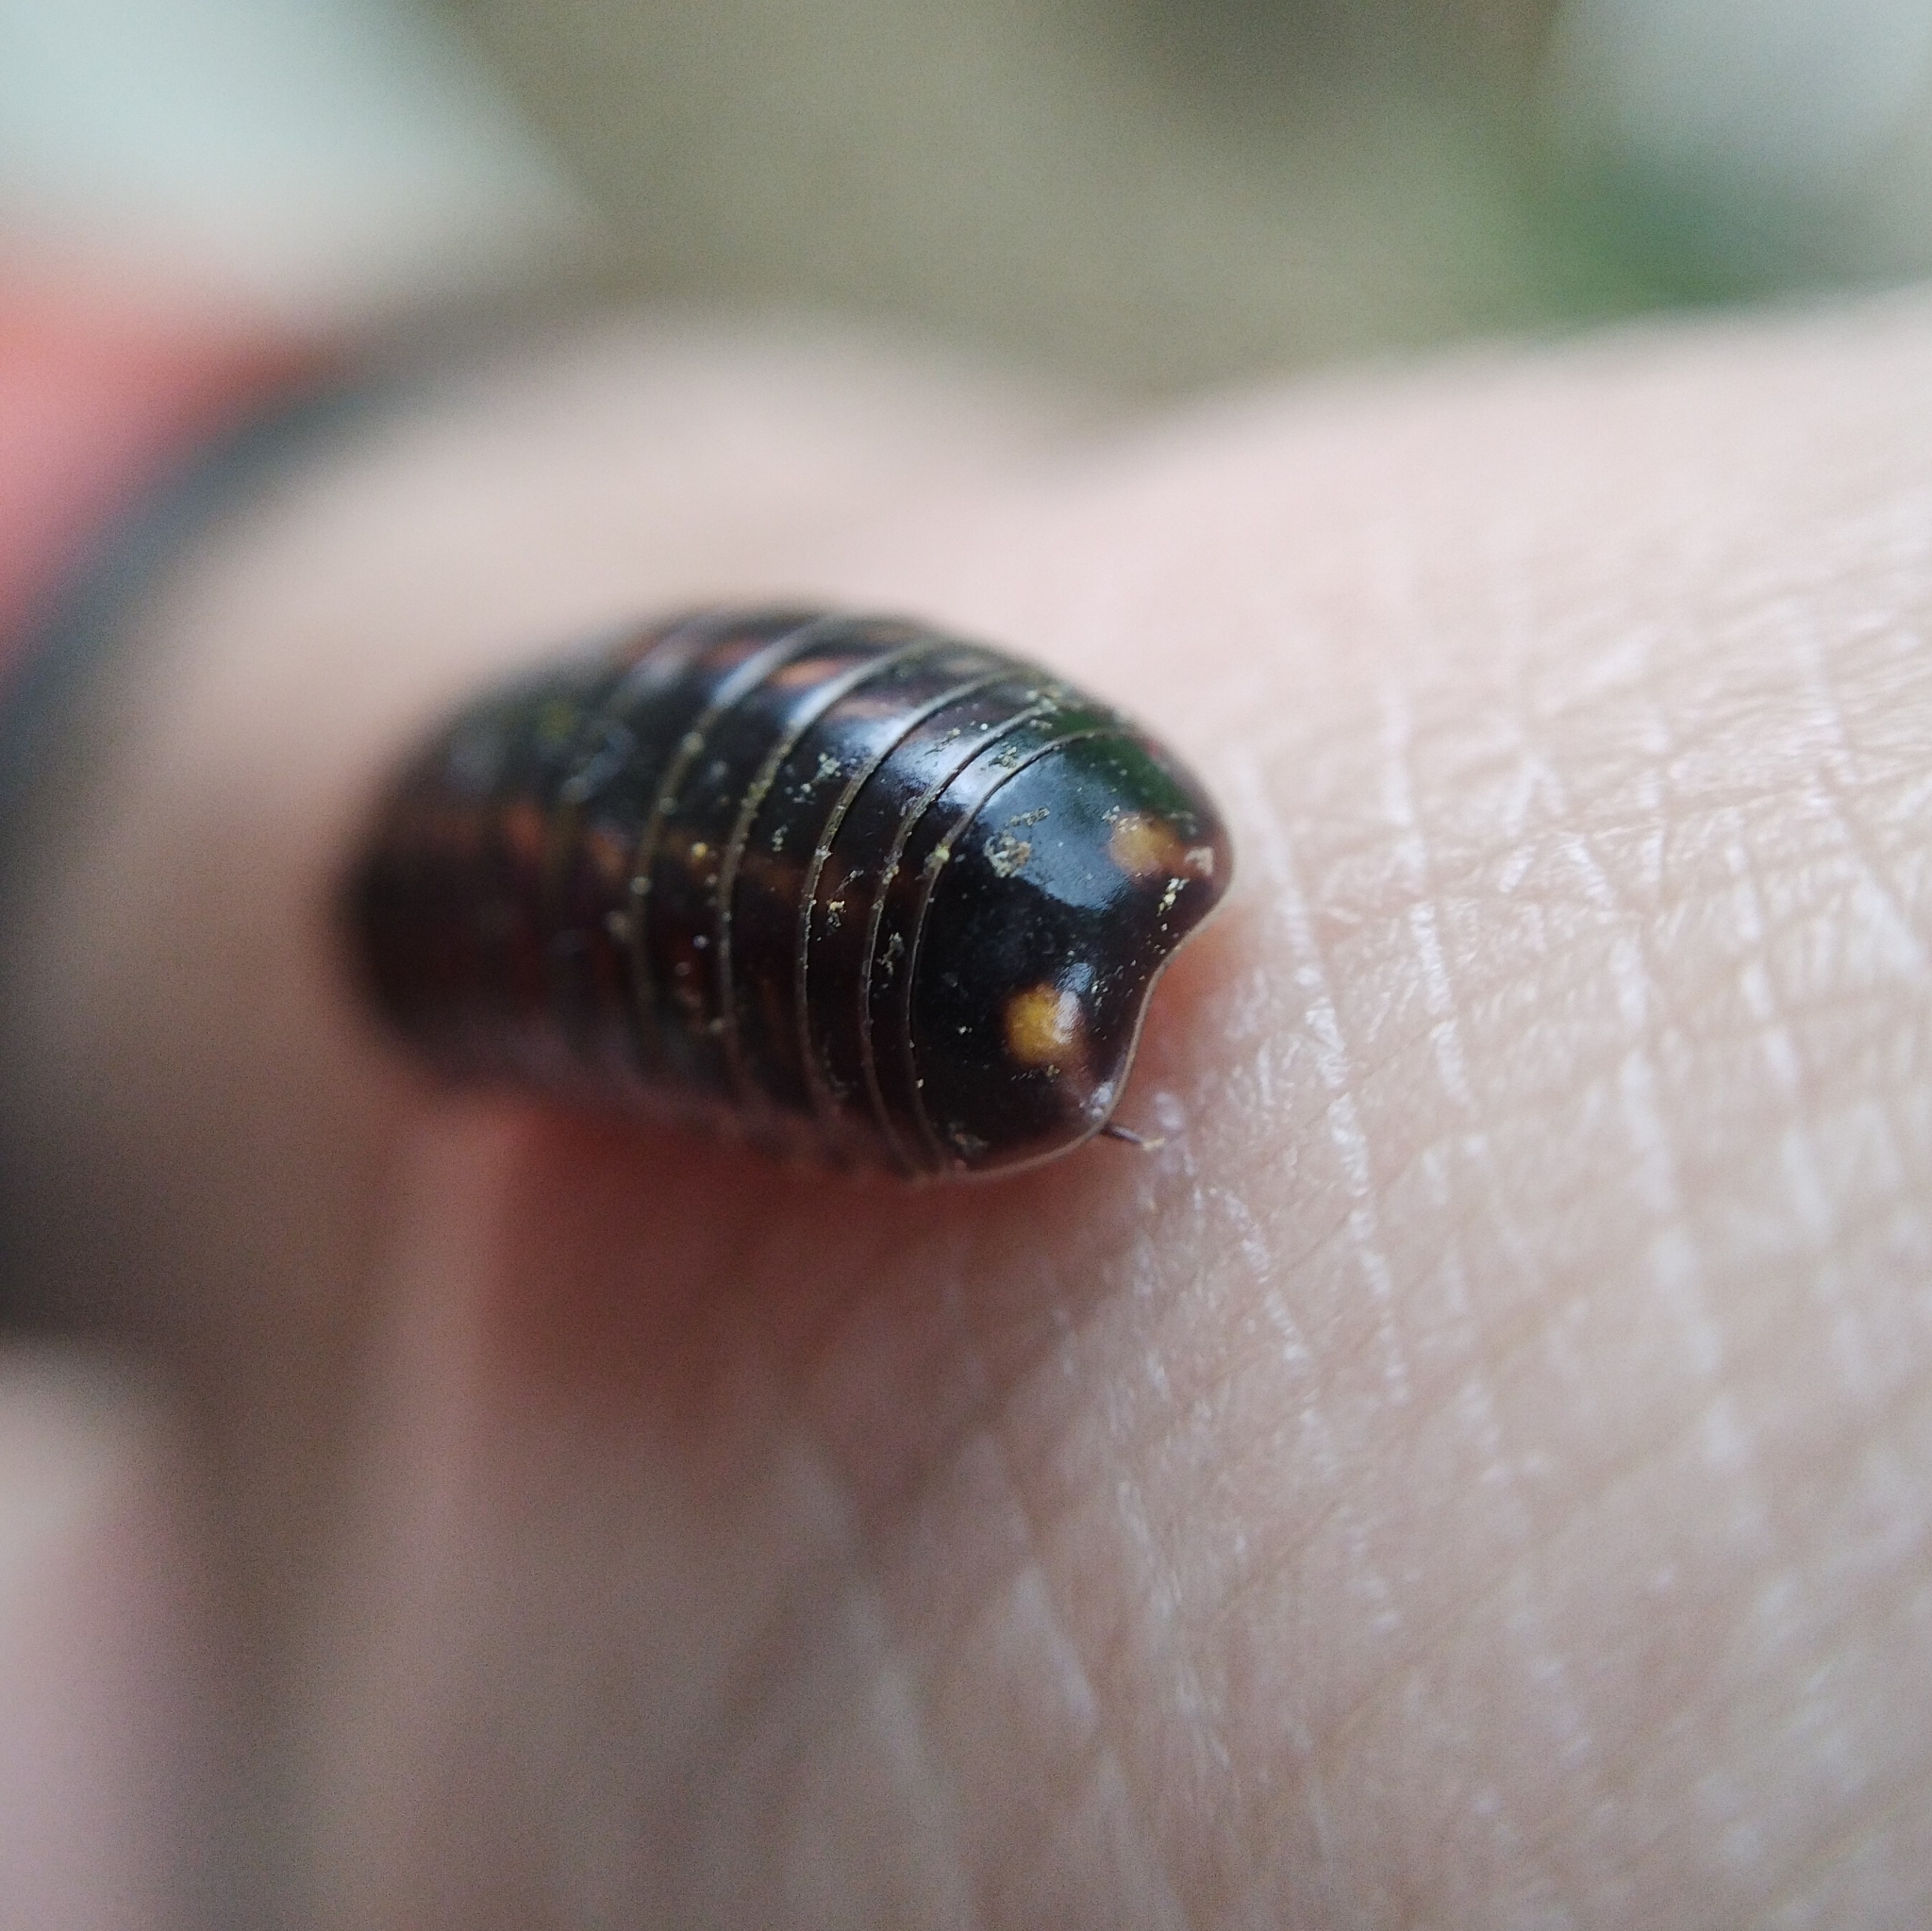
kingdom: Animalia
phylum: Arthropoda
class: Diplopoda
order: Glomerida
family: Glomeridae
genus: Glomeris
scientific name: Glomeris hexasticha
